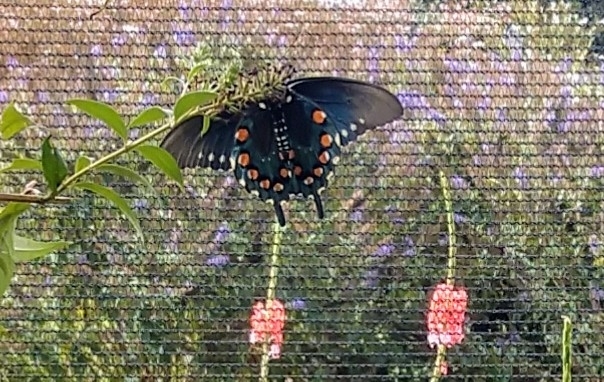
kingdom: Animalia
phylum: Arthropoda
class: Insecta
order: Lepidoptera
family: Papilionidae
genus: Battus
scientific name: Battus philenor
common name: Pipevine swallowtail
